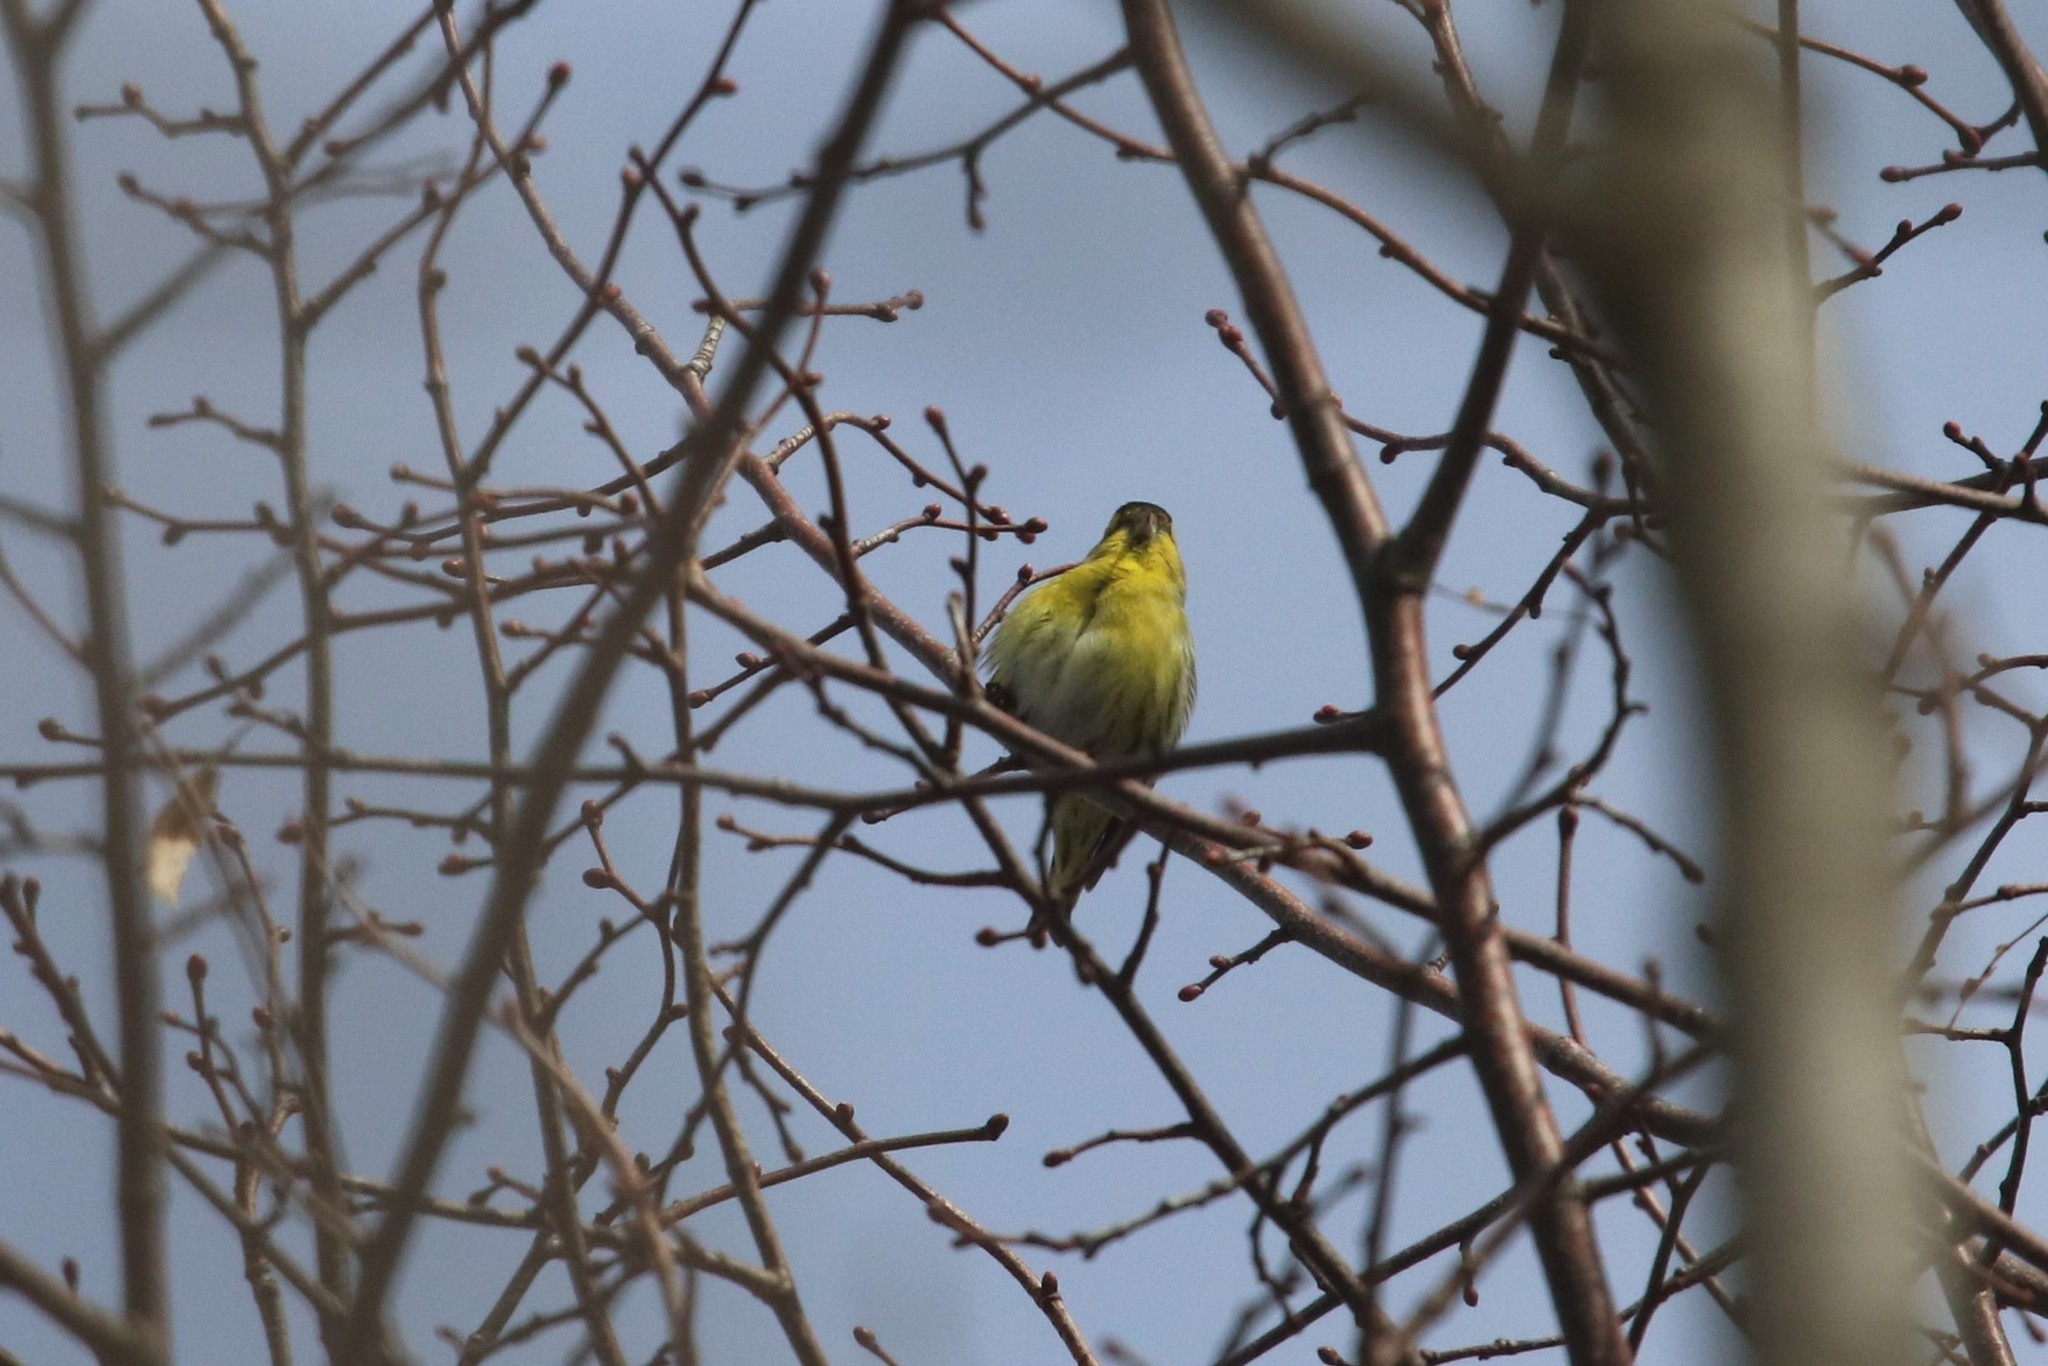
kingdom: Animalia
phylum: Chordata
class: Aves
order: Passeriformes
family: Fringillidae
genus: Spinus
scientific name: Spinus spinus
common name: Eurasian siskin
